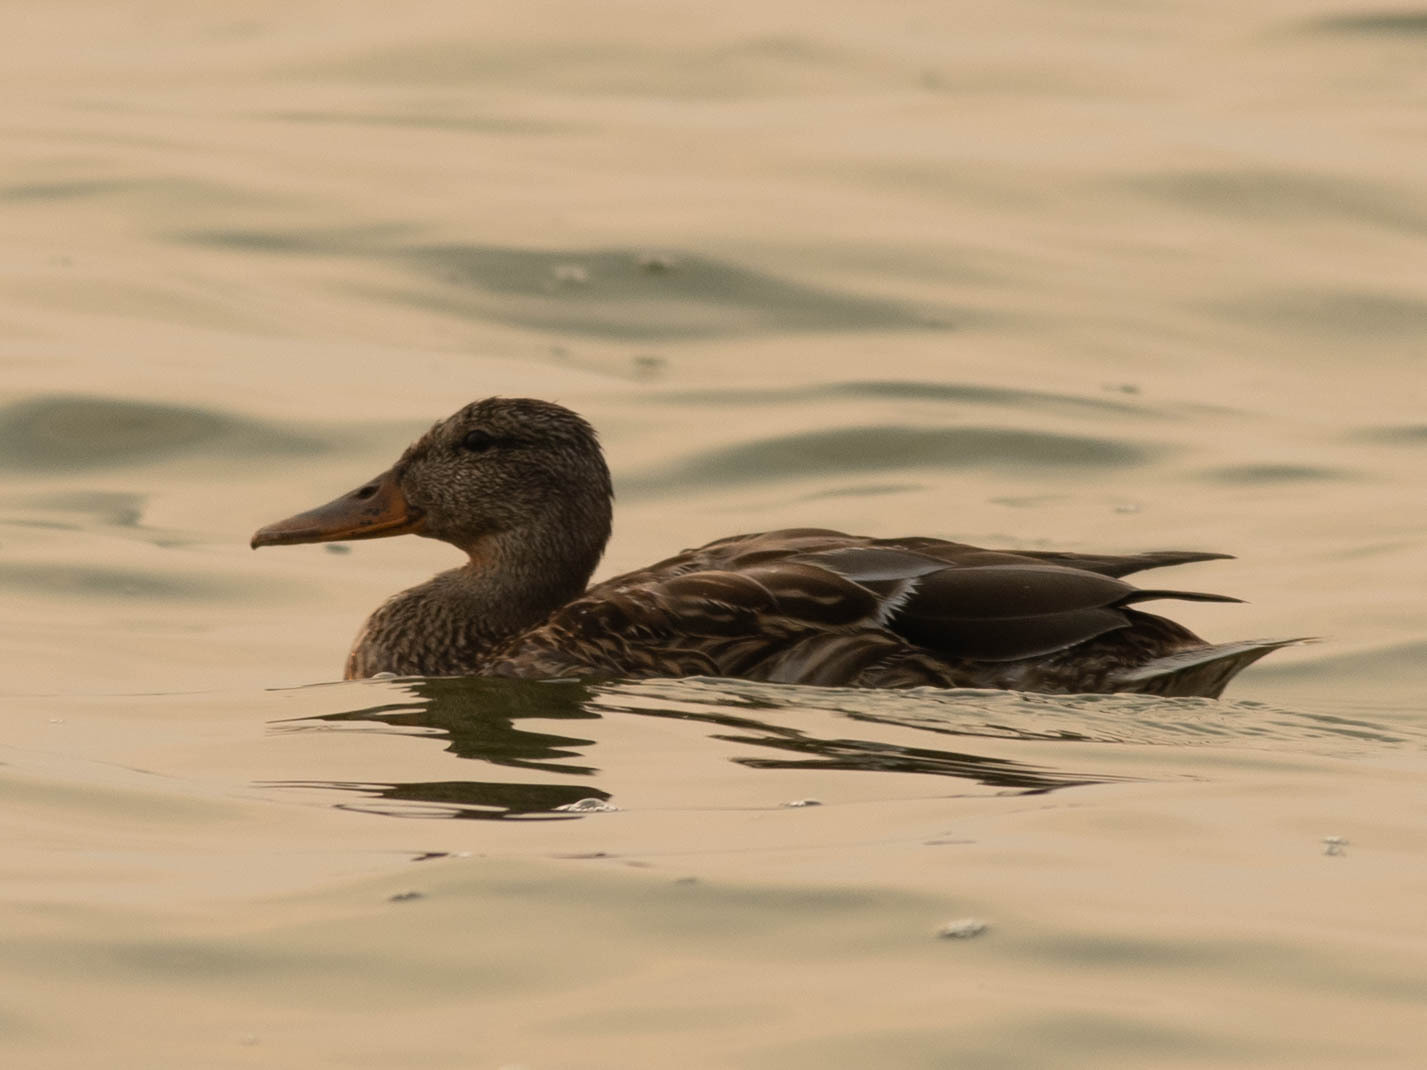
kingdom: Animalia
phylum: Chordata
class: Aves
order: Anseriformes
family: Anatidae
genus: Anas
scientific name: Anas platyrhynchos
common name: Mallard
